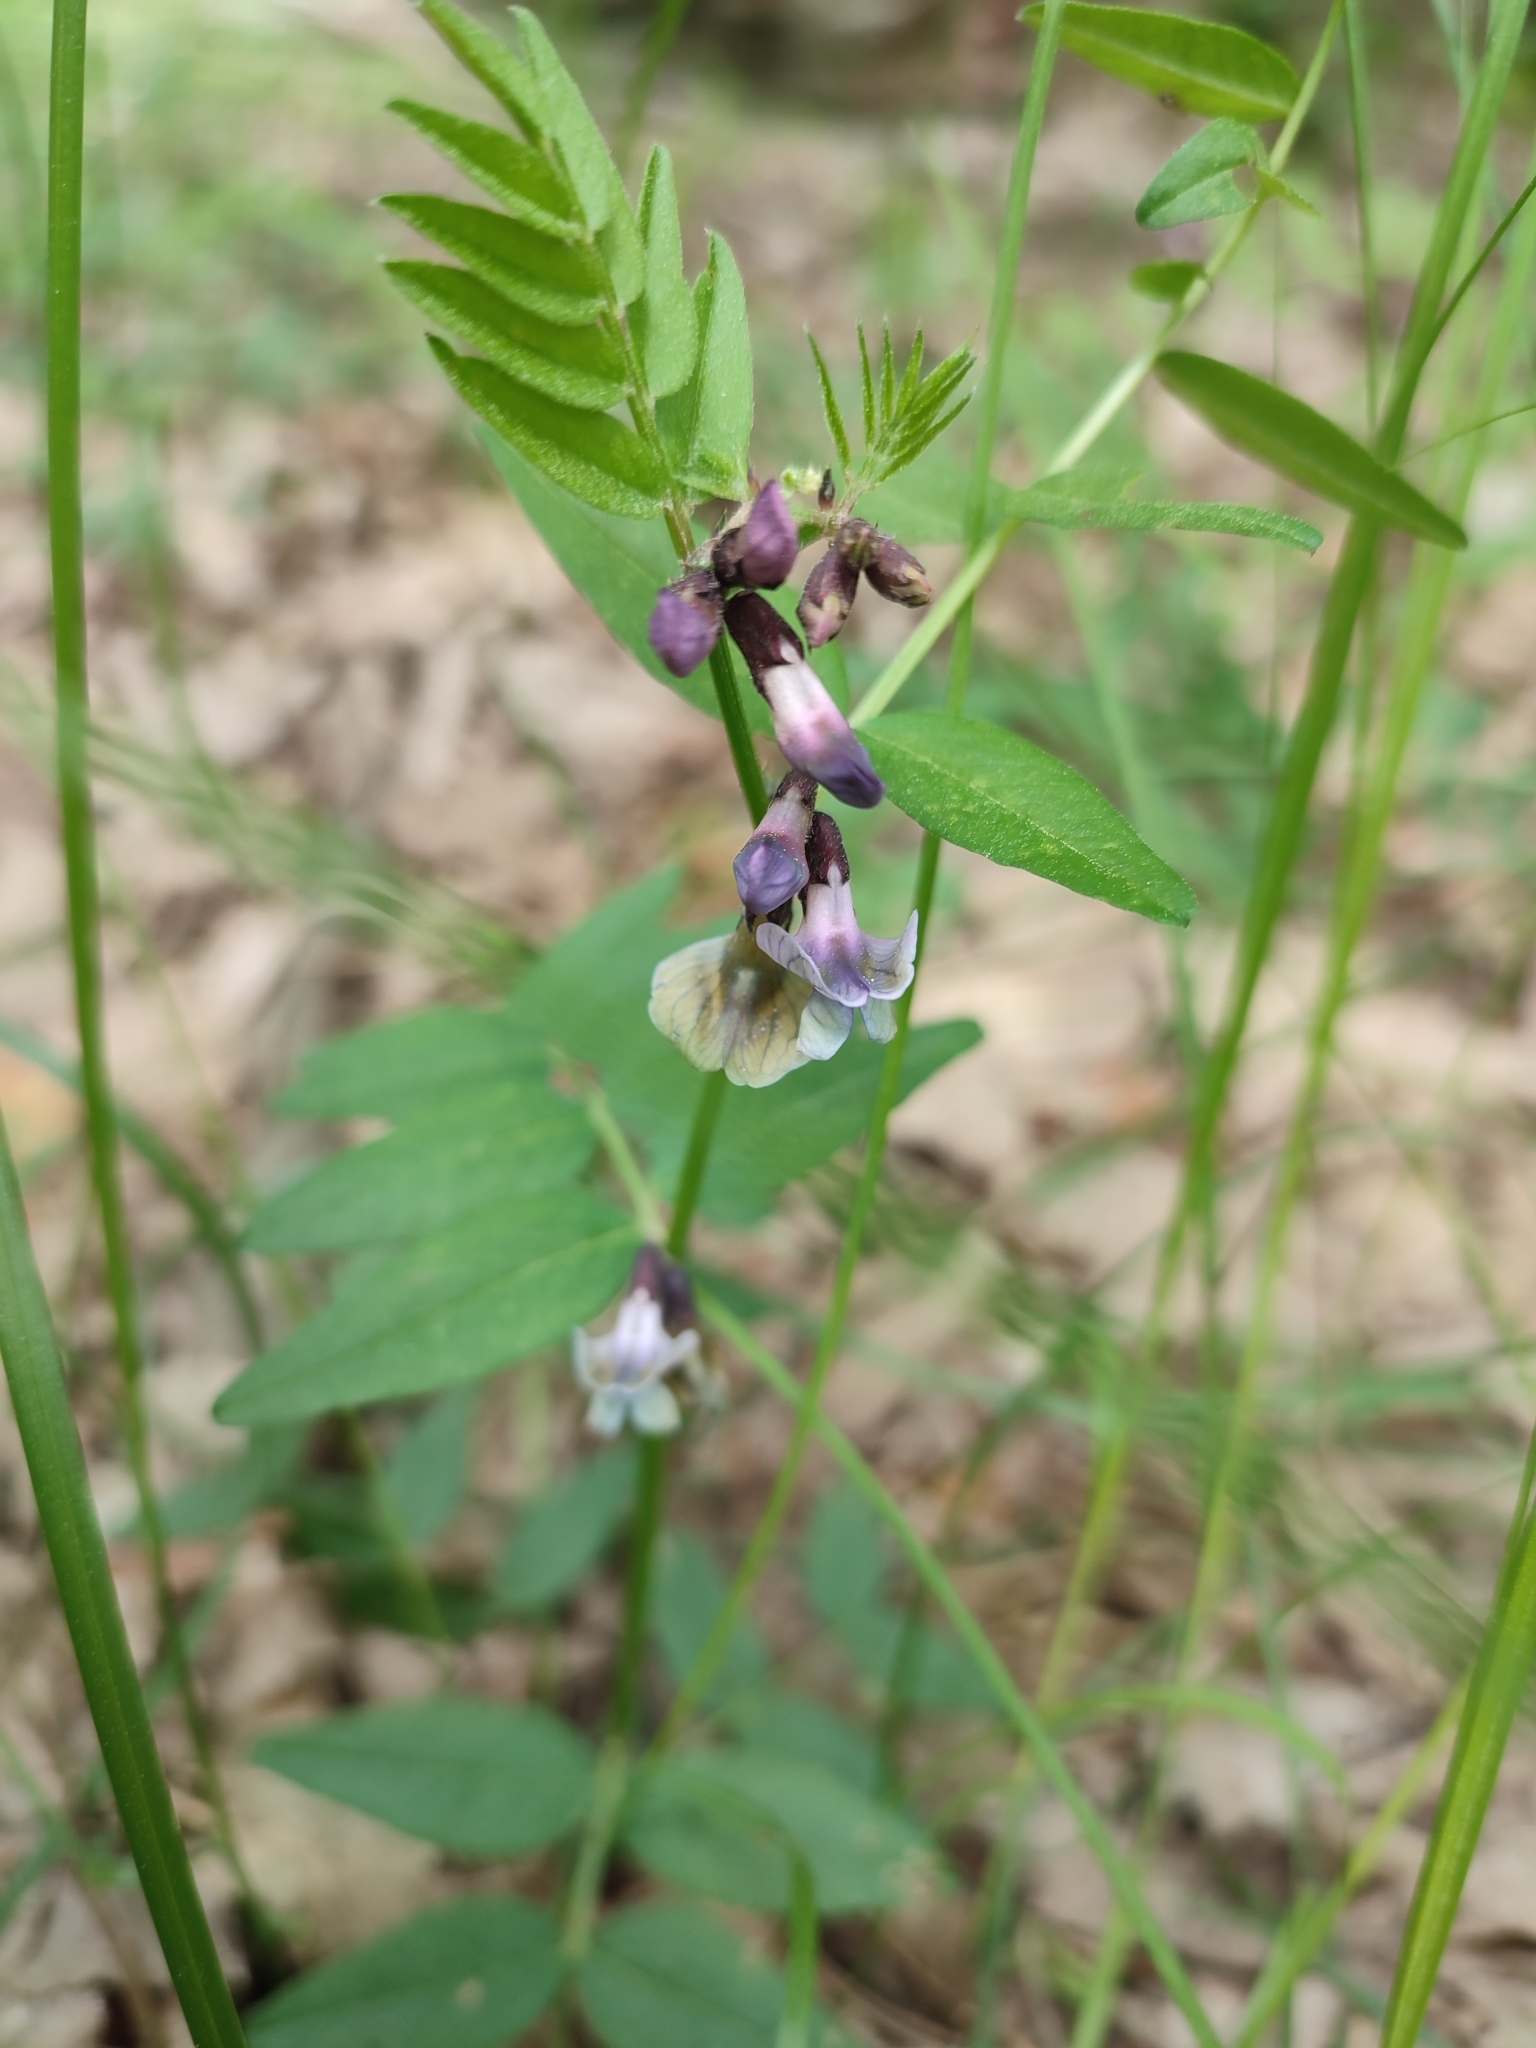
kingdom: Plantae
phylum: Tracheophyta
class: Magnoliopsida
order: Fabales
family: Fabaceae
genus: Vicia
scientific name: Vicia sepium
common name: Bush vetch
